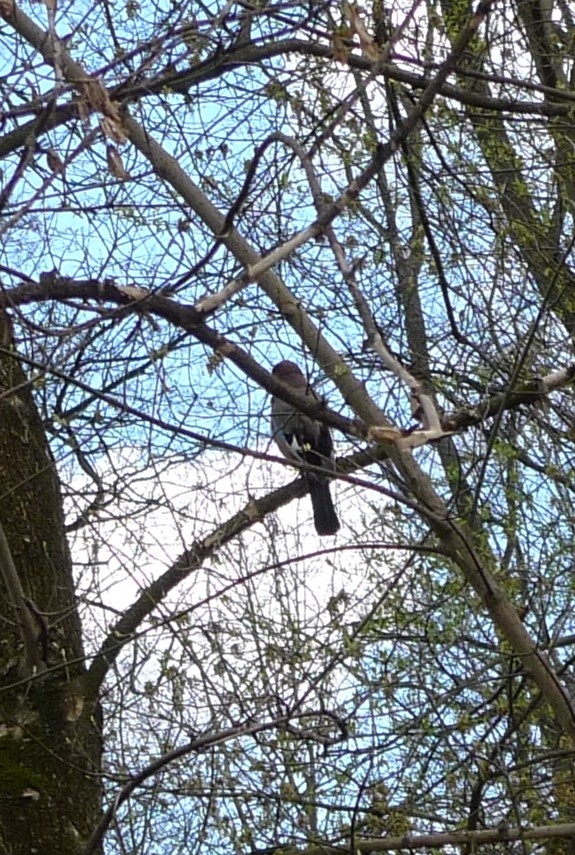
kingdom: Animalia
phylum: Chordata
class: Aves
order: Passeriformes
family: Corvidae
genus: Garrulus
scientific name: Garrulus glandarius
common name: Eurasian jay
